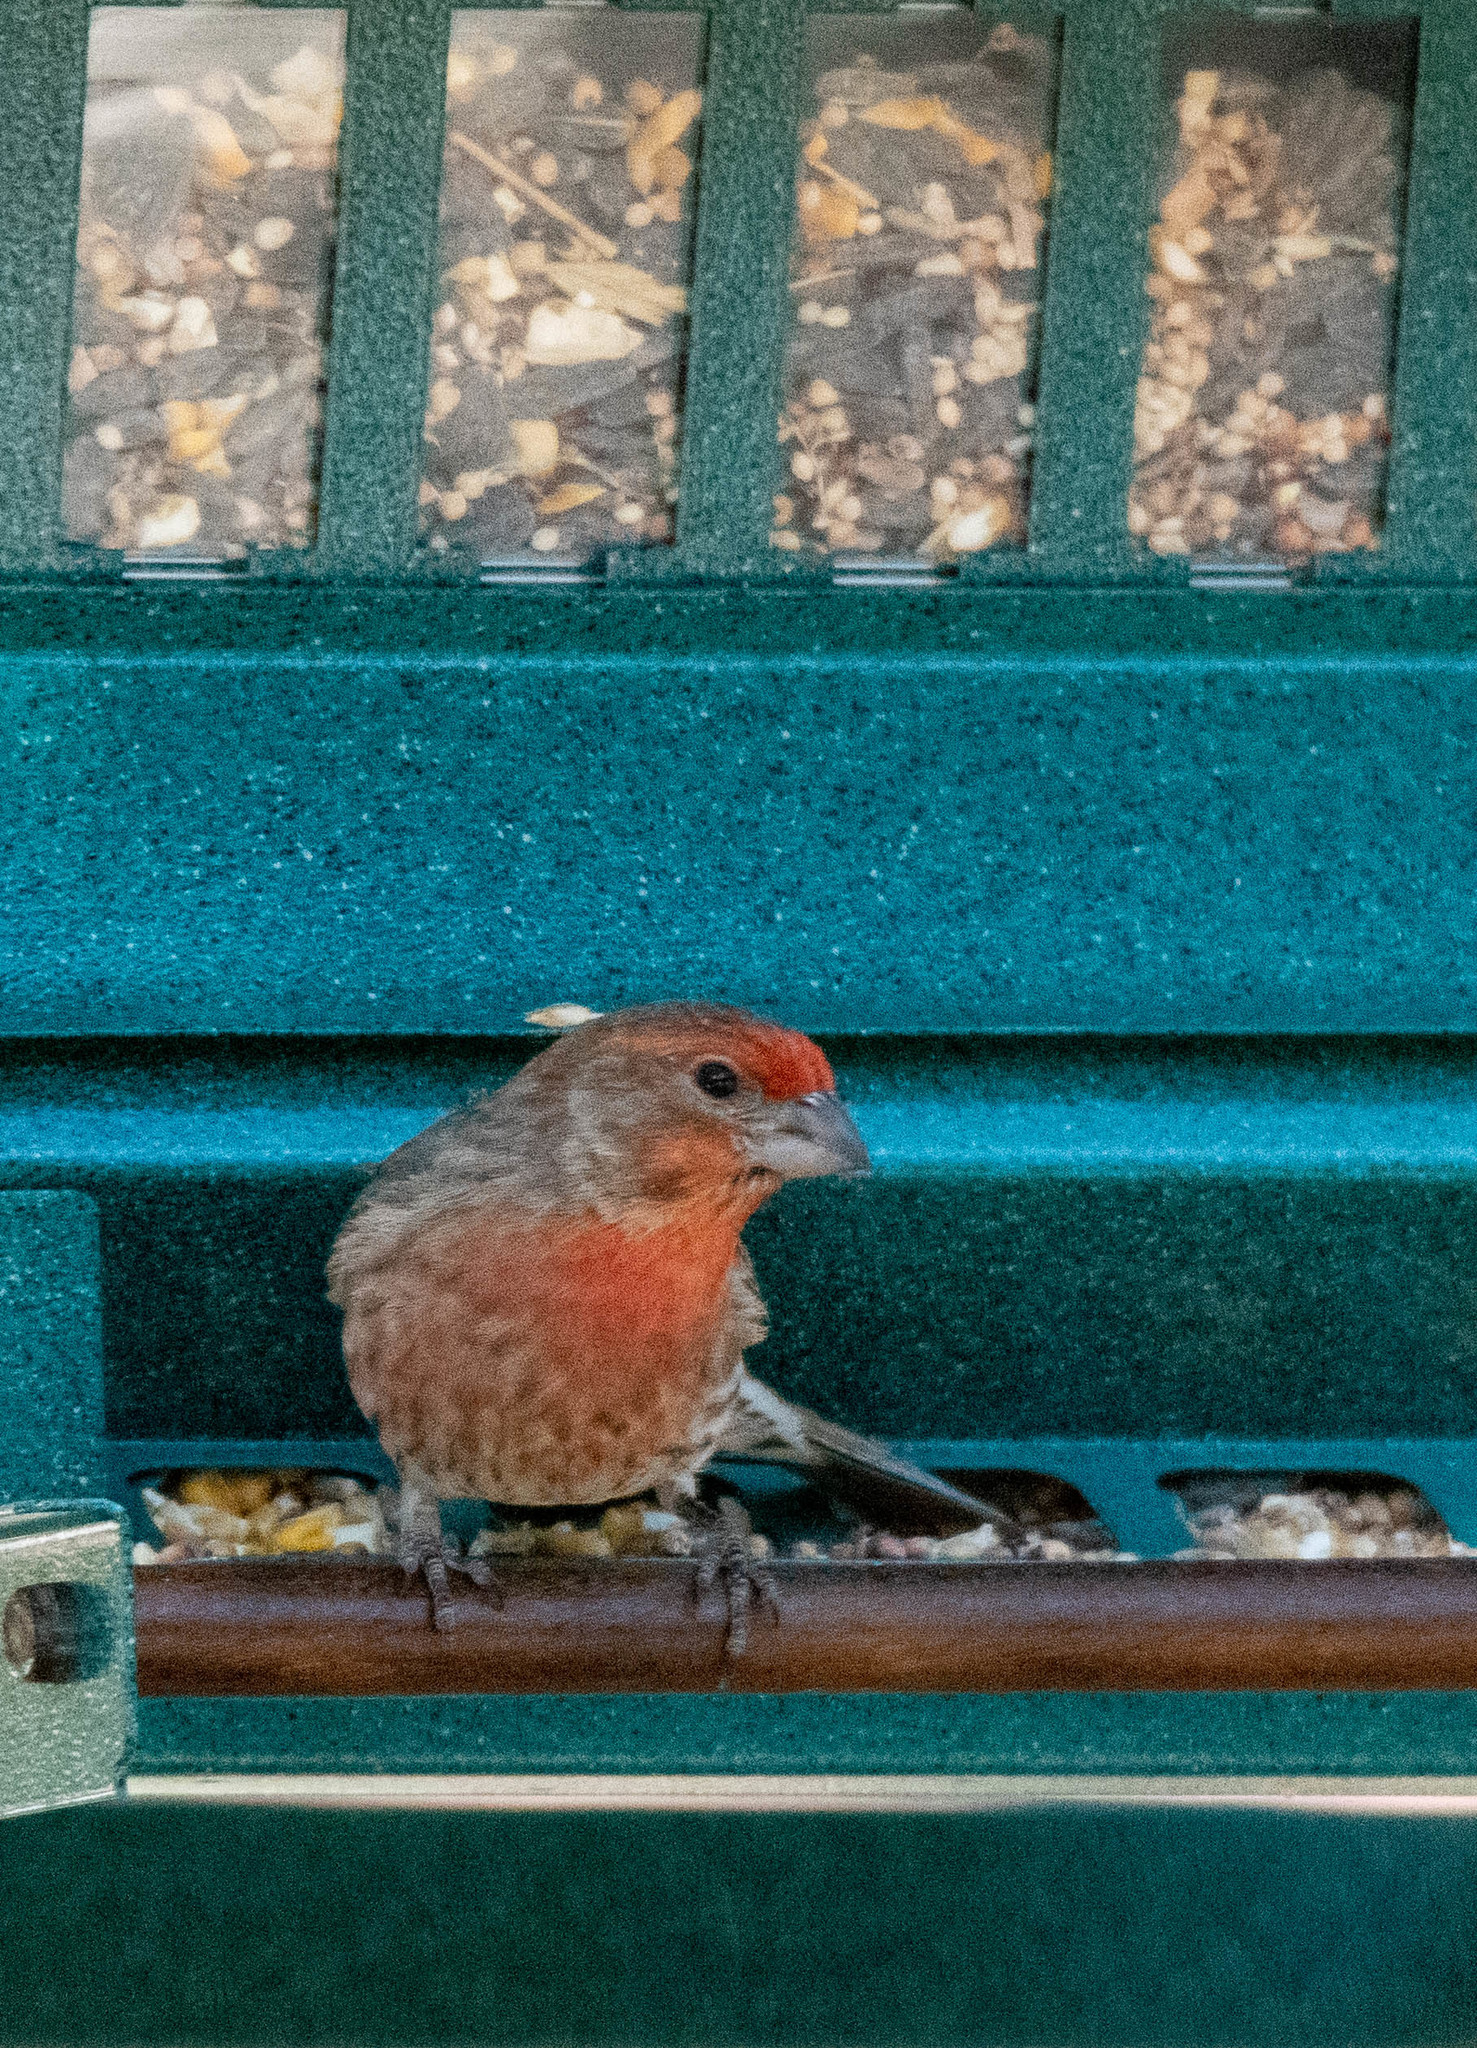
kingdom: Animalia
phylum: Chordata
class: Aves
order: Passeriformes
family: Fringillidae
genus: Haemorhous
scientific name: Haemorhous mexicanus
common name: House finch
